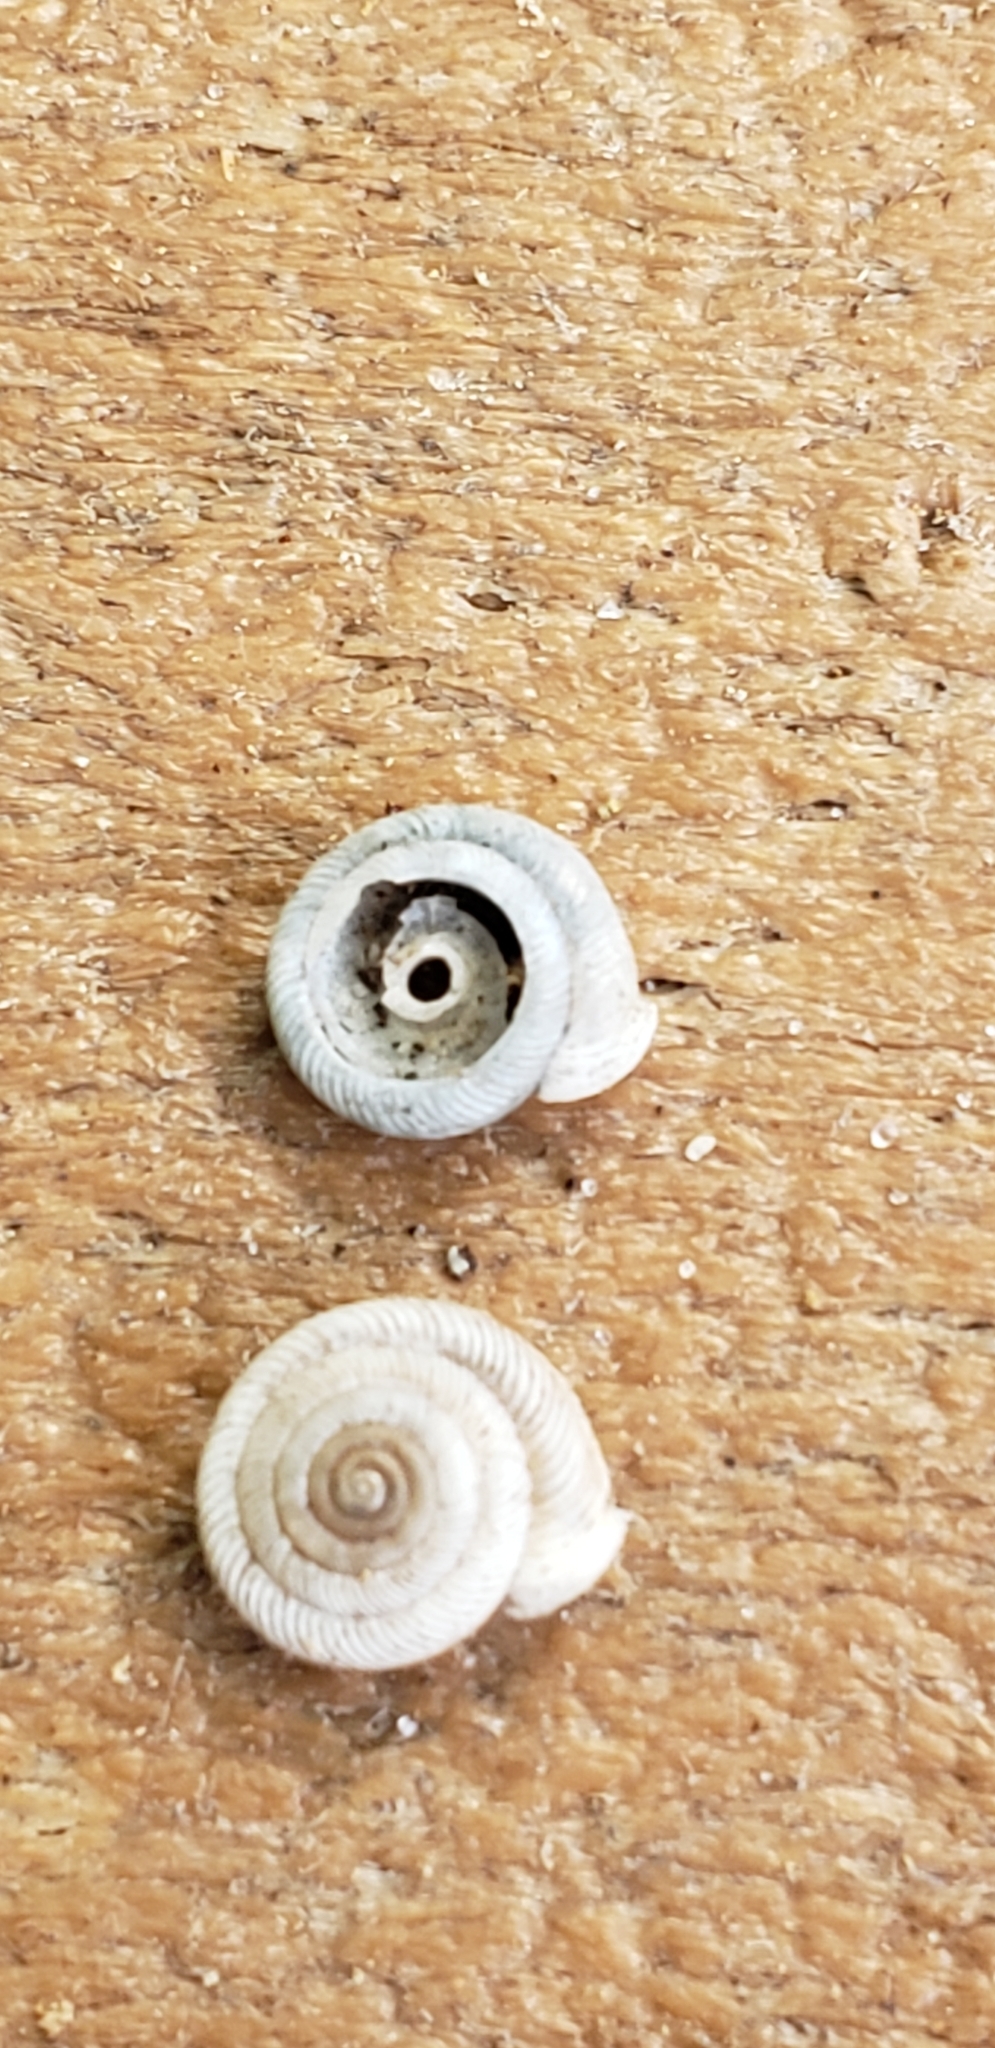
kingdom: Animalia
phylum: Mollusca
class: Gastropoda
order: Stylommatophora
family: Polygyridae
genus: Polygyra
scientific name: Polygyra cereolus
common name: Southern flatcone snail
